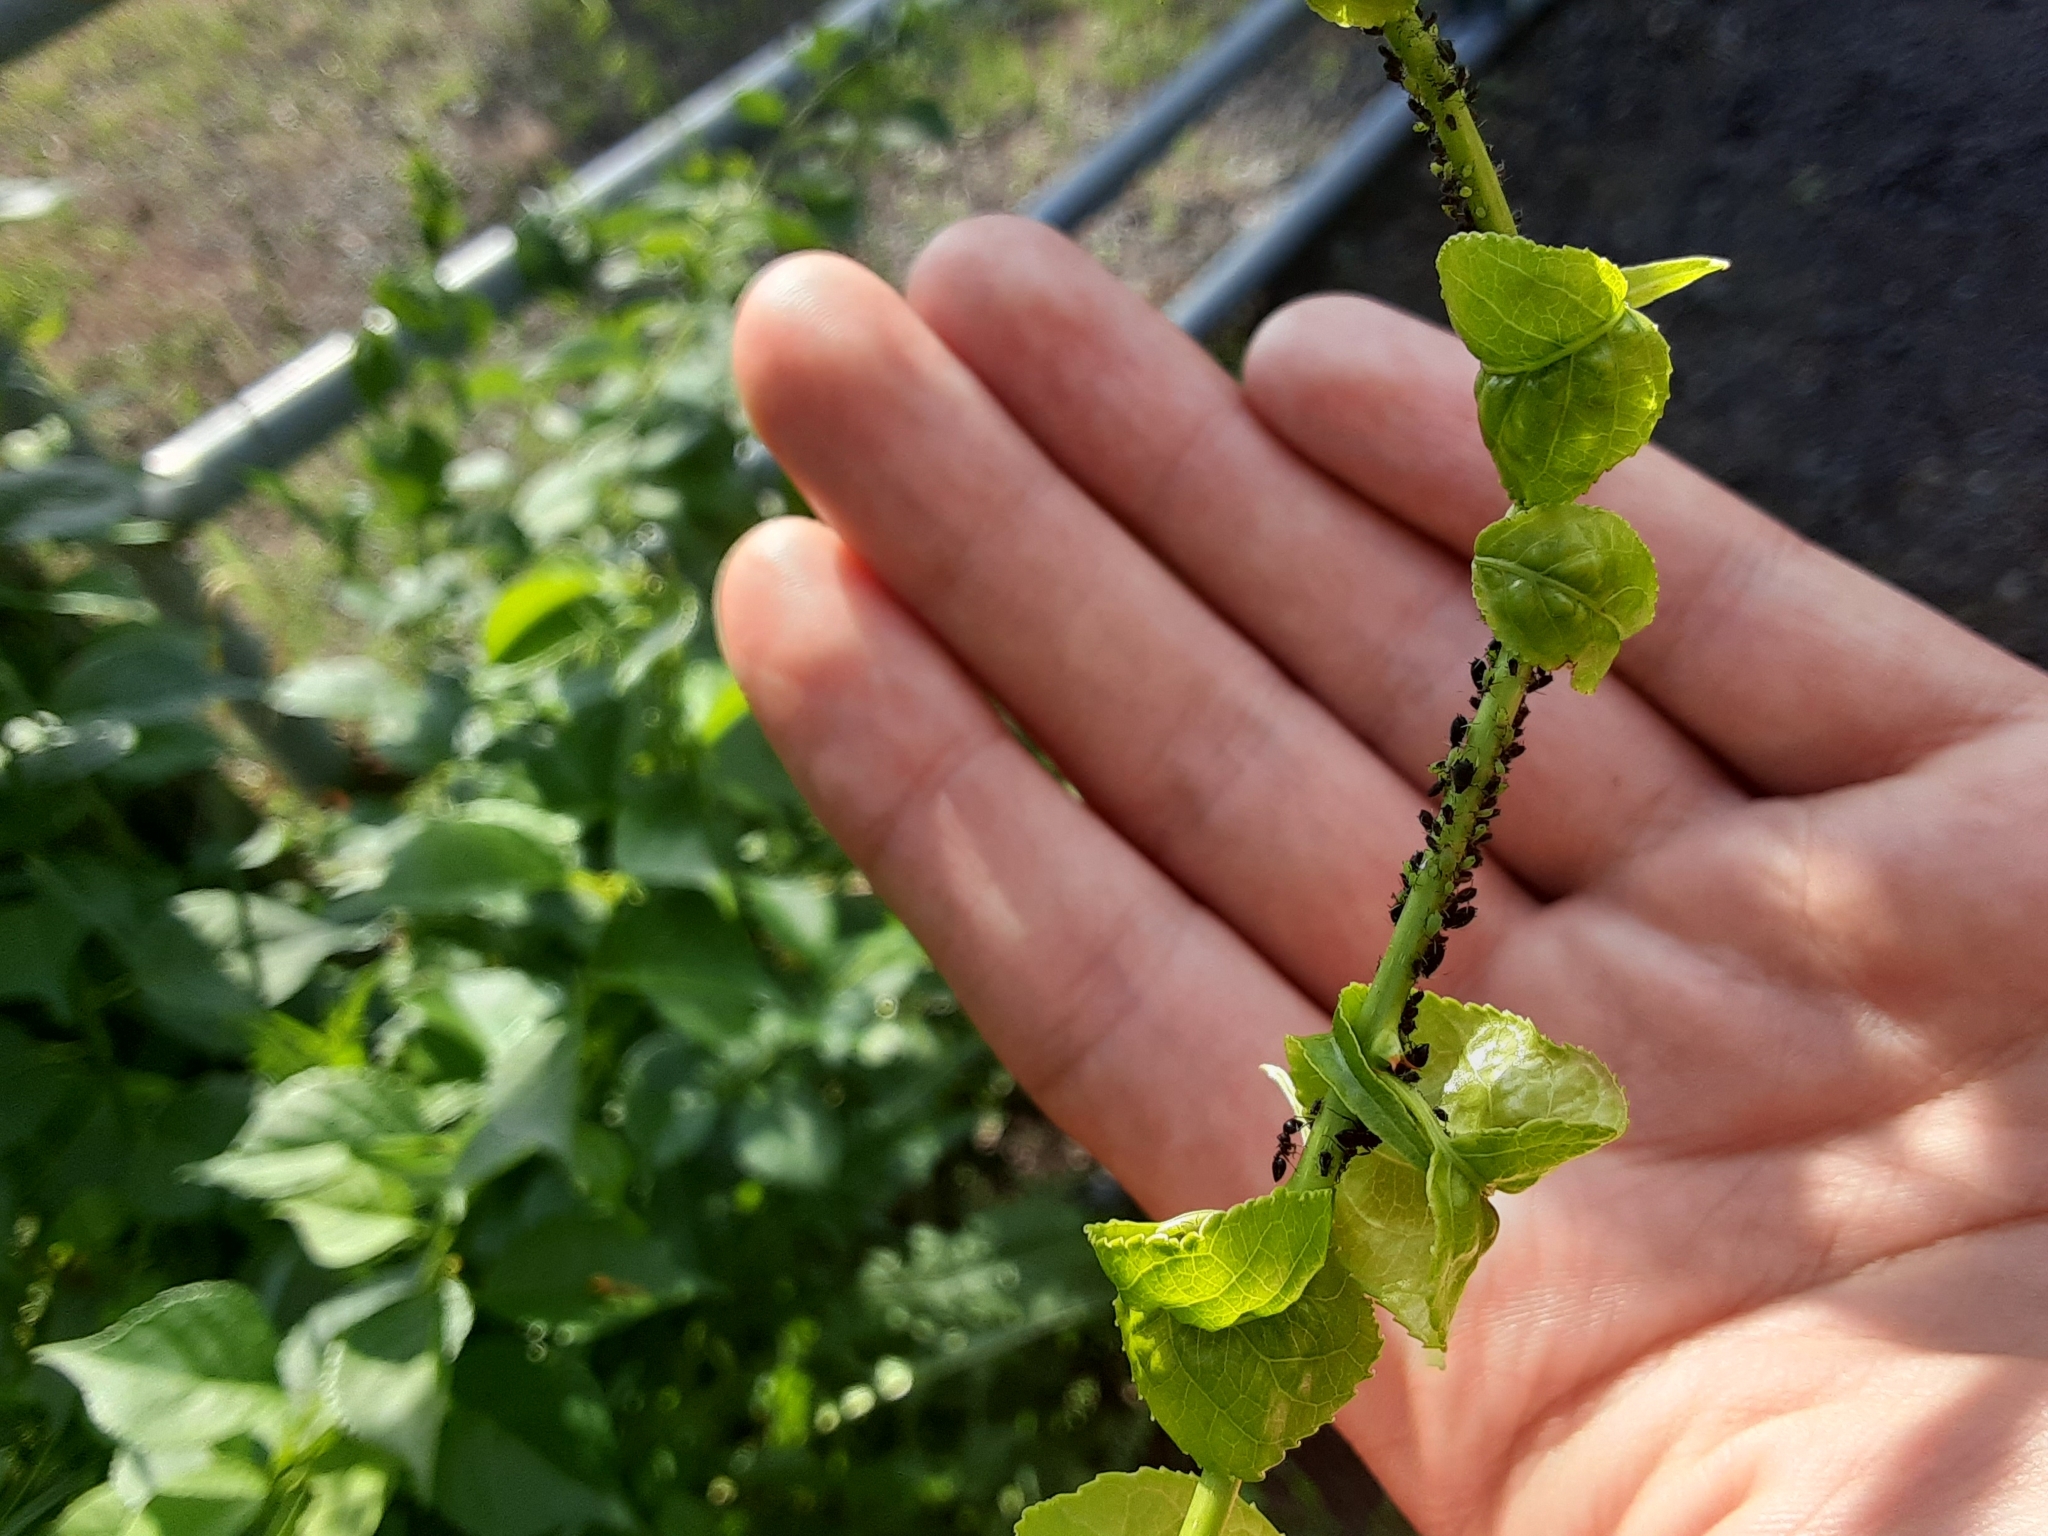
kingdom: Plantae
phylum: Tracheophyta
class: Magnoliopsida
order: Celastrales
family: Celastraceae
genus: Celastrus
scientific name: Celastrus orbiculatus
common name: Oriental bittersweet
